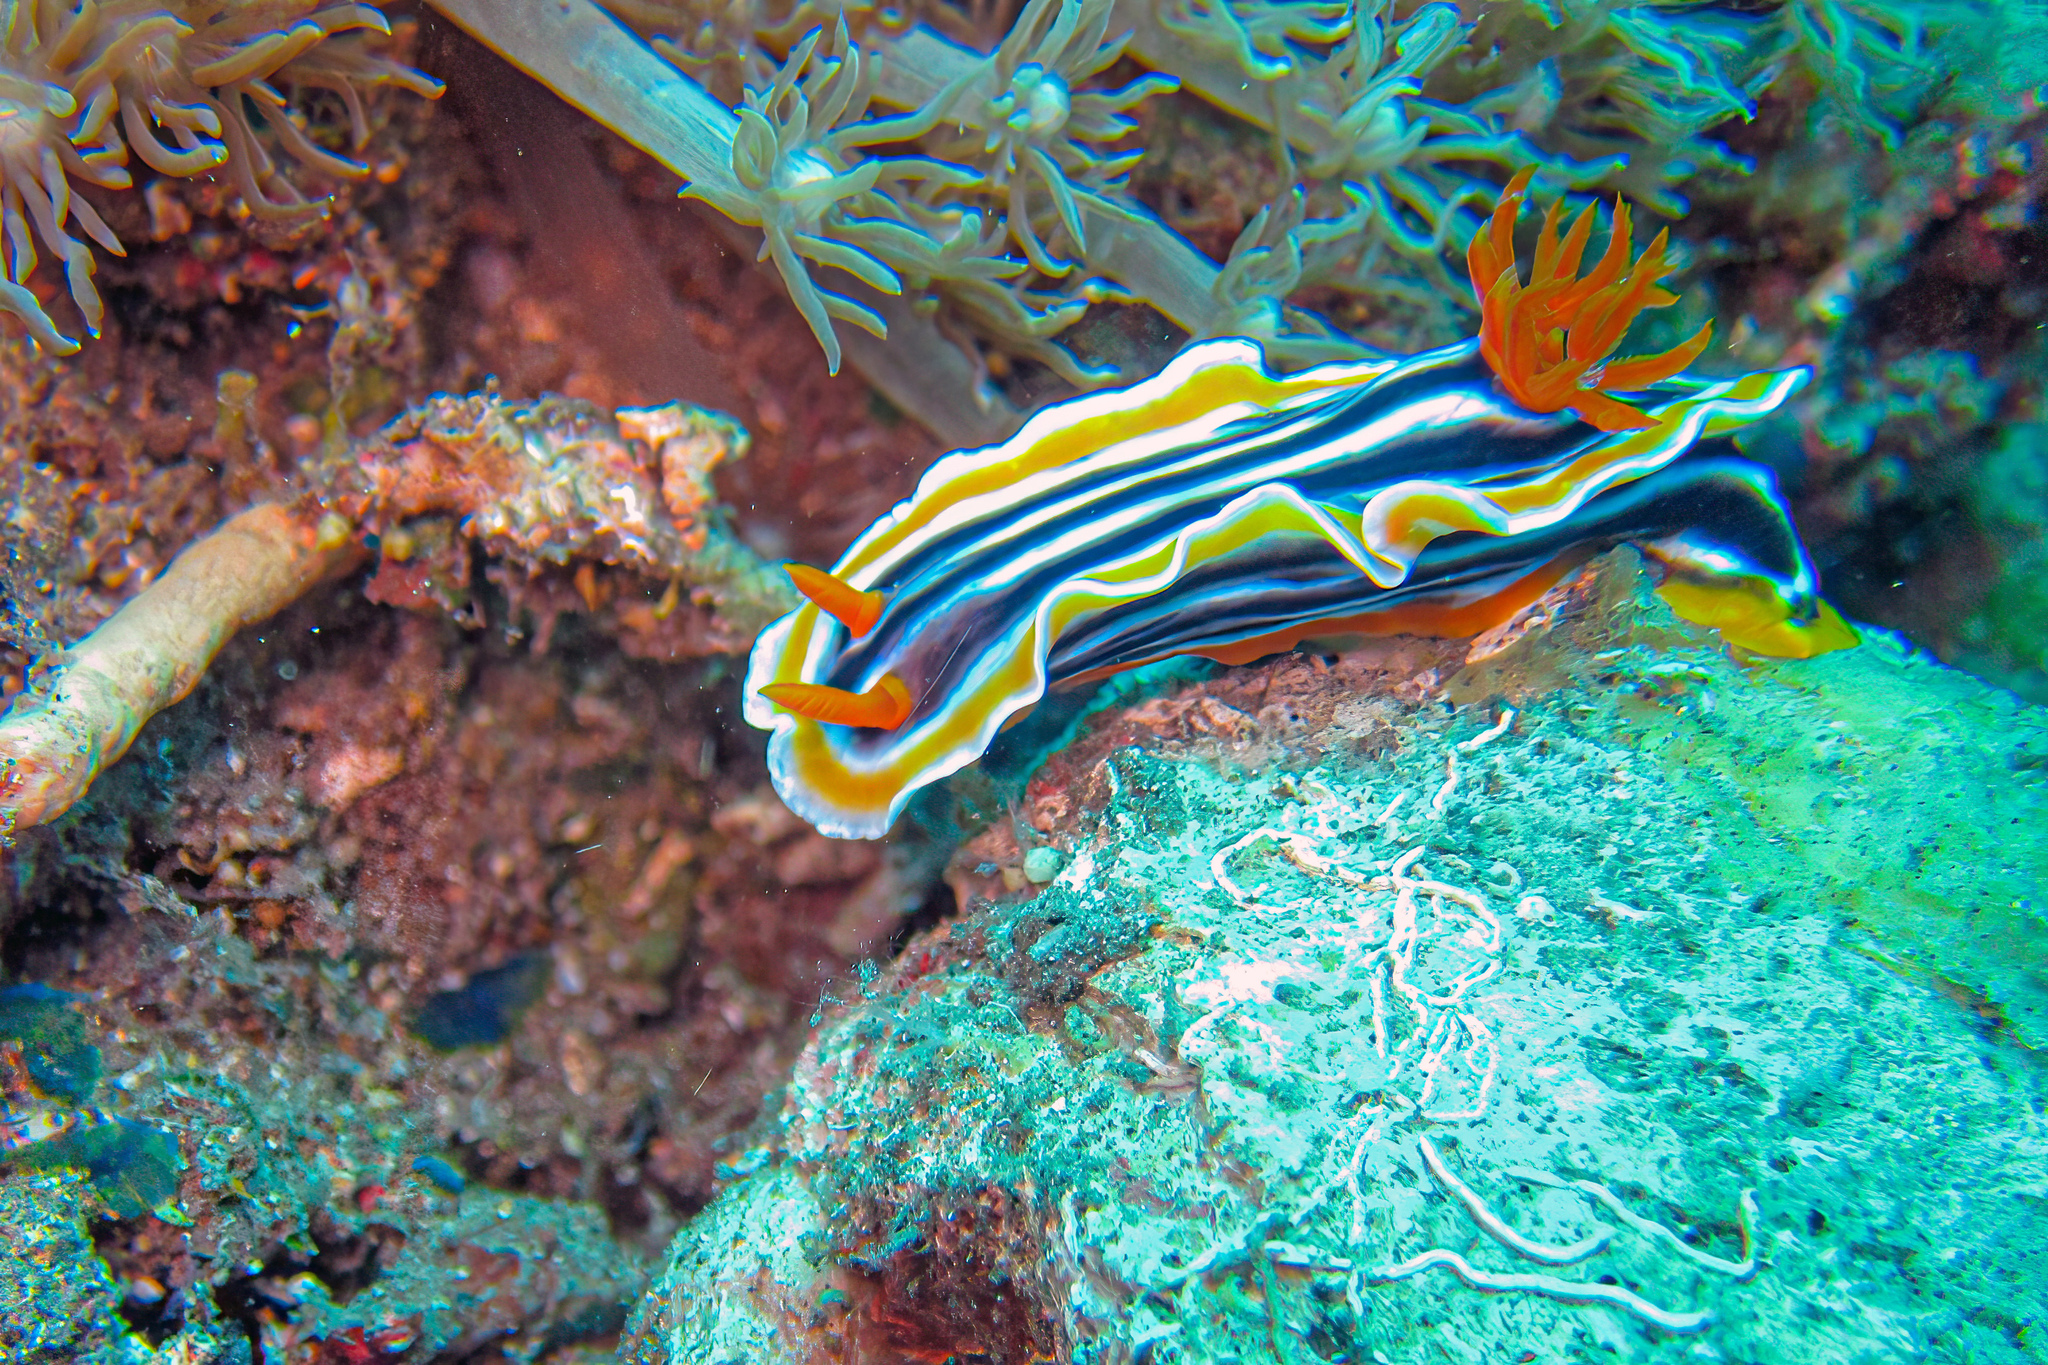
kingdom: Animalia
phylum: Mollusca
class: Gastropoda
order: Nudibranchia
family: Chromodorididae
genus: Chromodoris
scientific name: Chromodoris magnifica
